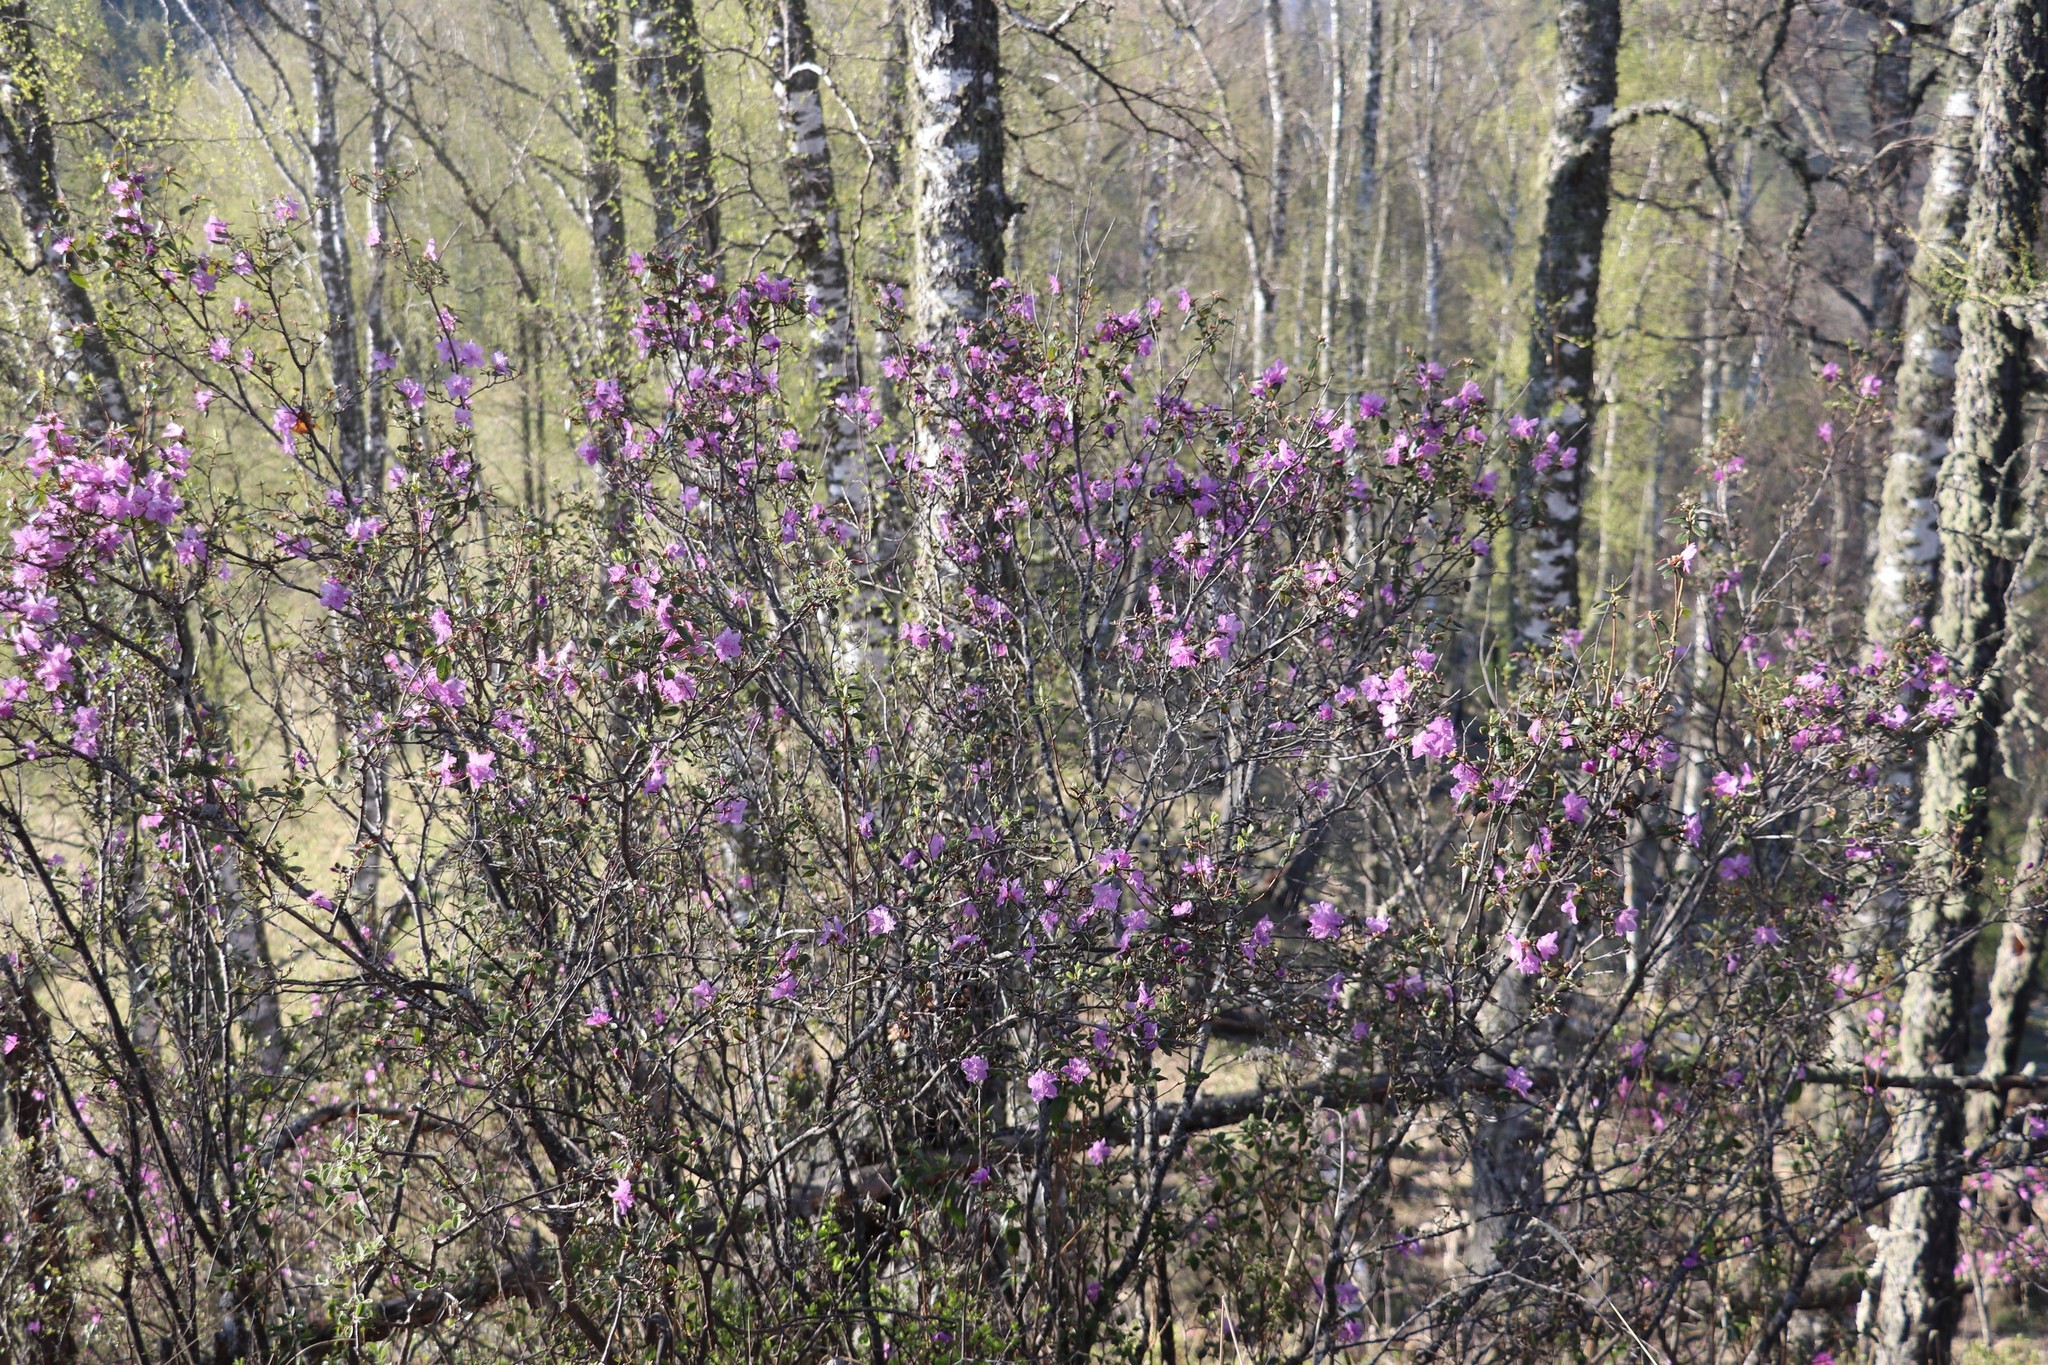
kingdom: Plantae
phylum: Tracheophyta
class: Magnoliopsida
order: Ericales
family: Ericaceae
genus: Rhododendron
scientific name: Rhododendron dauricum
